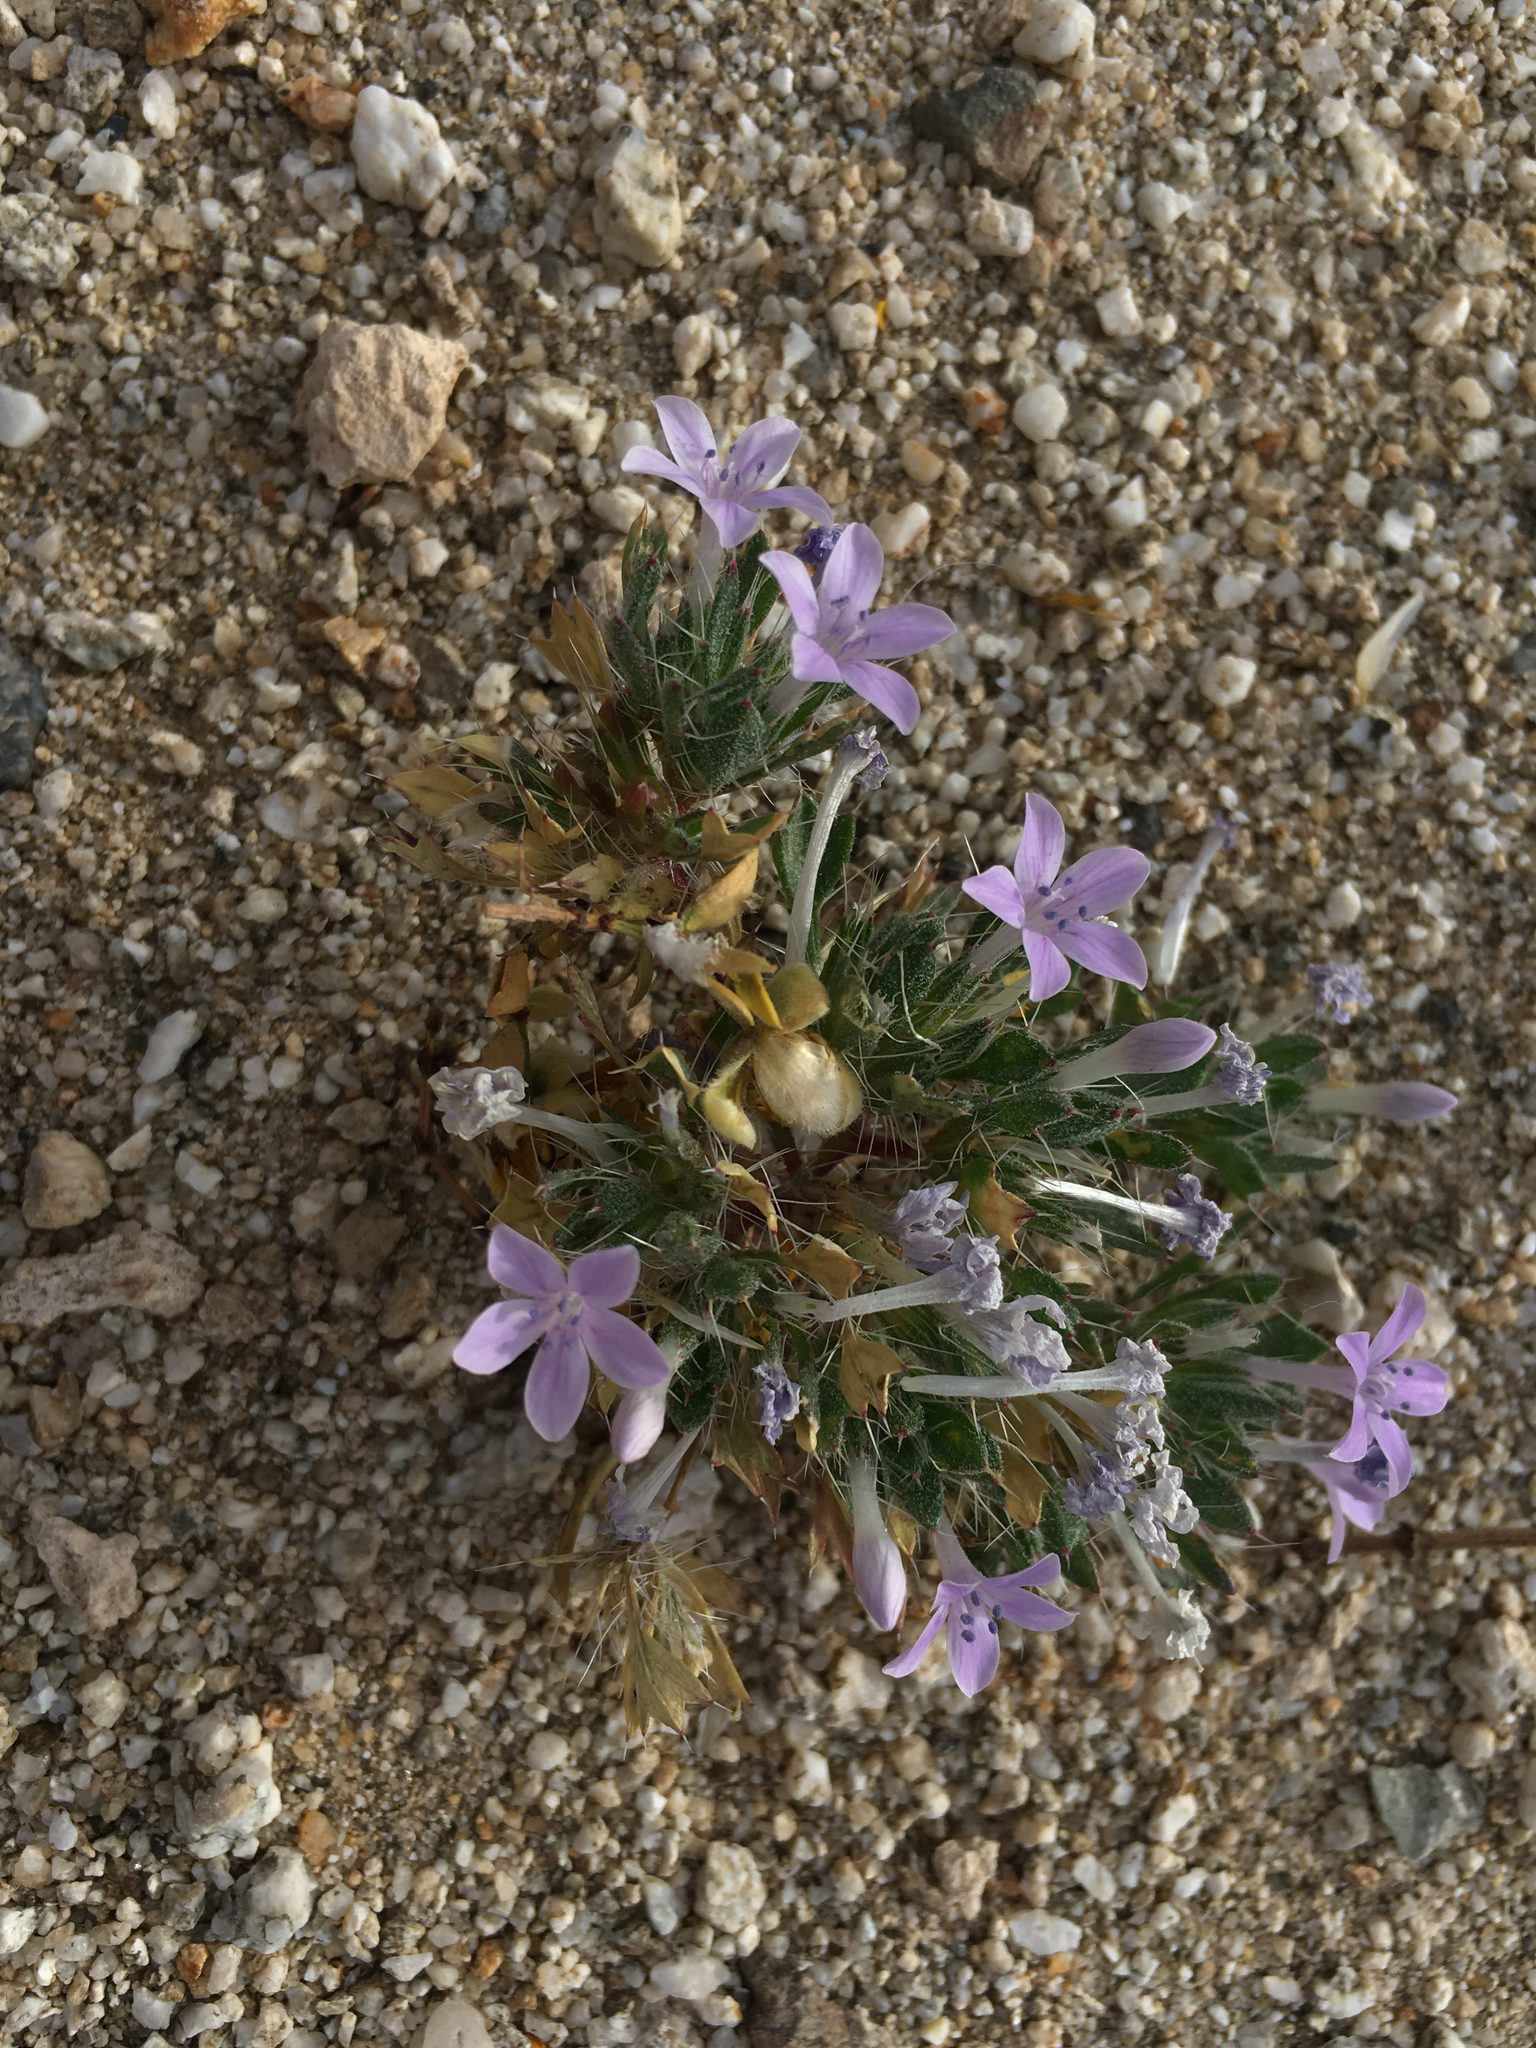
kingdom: Plantae
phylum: Tracheophyta
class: Magnoliopsida
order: Ericales
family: Polemoniaceae
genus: Langloisia
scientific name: Langloisia setosissima
